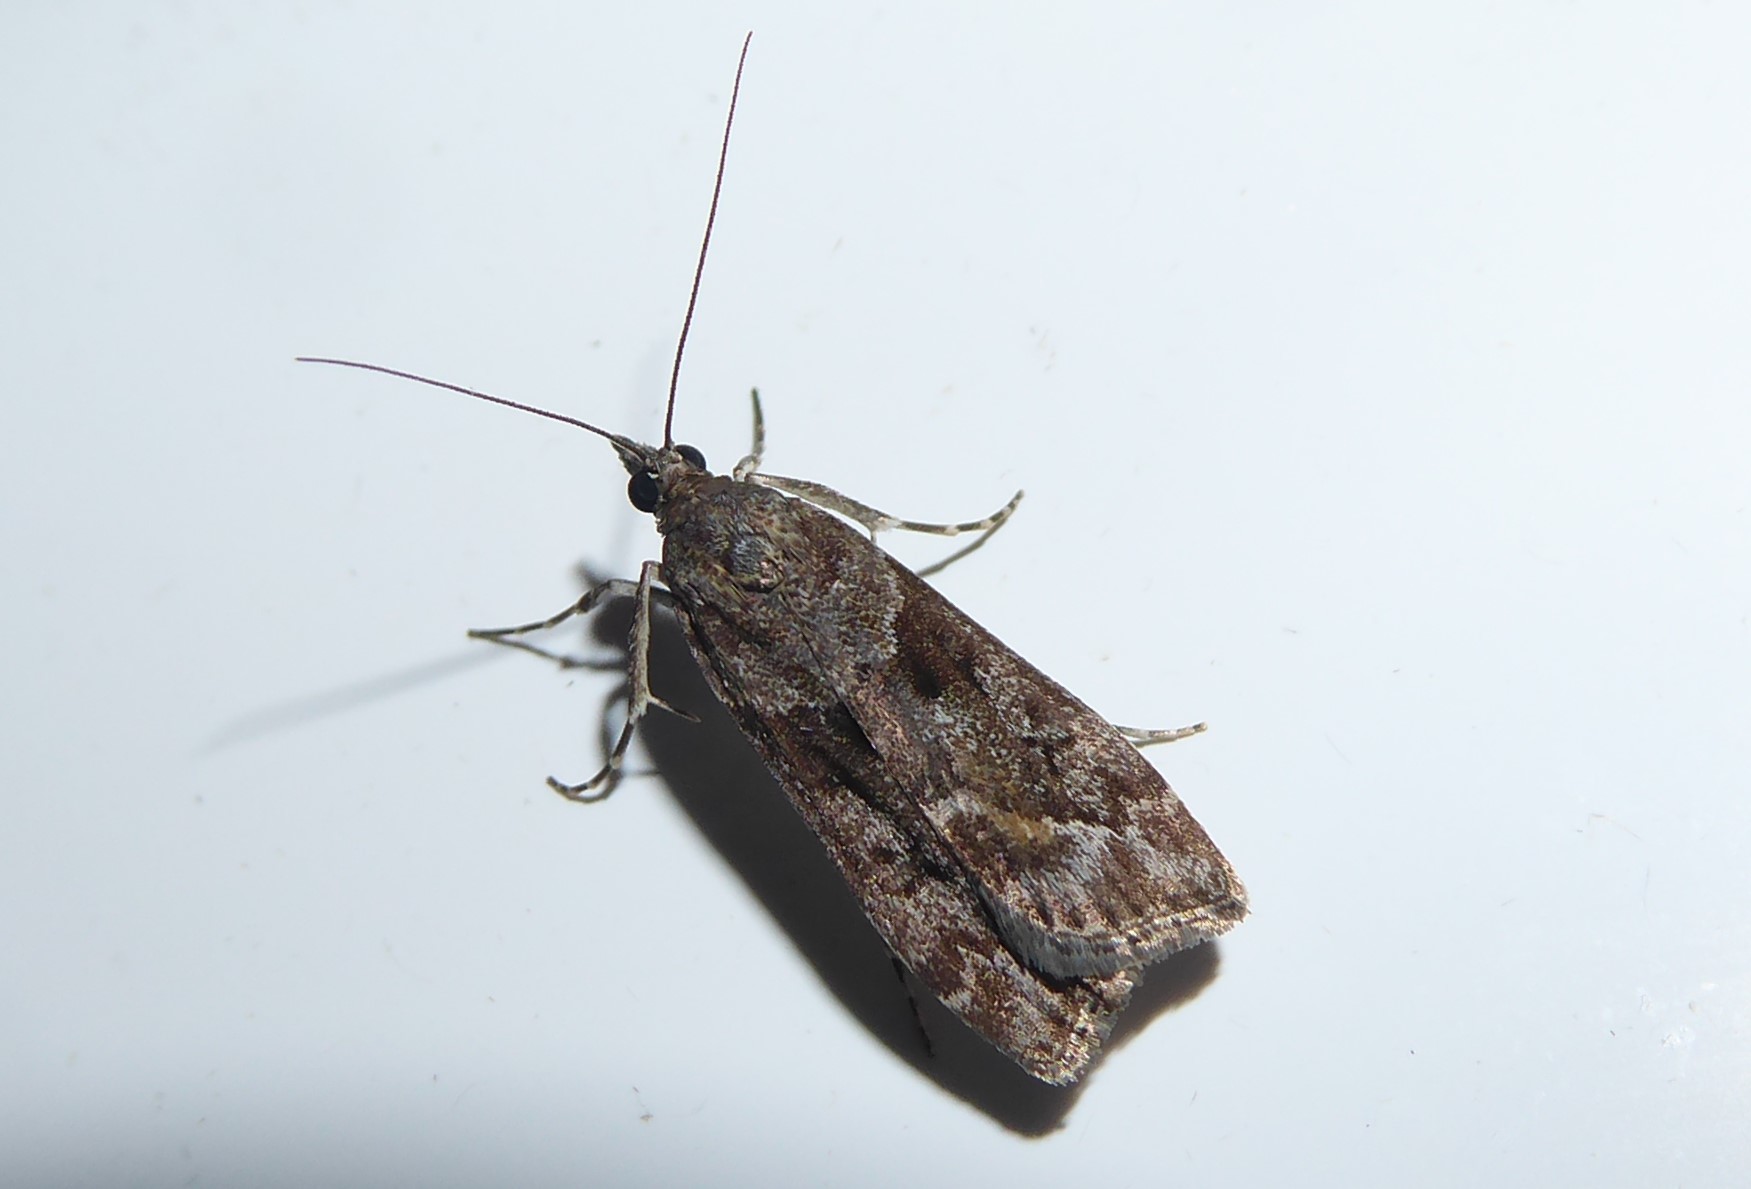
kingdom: Animalia
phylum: Arthropoda
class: Insecta
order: Lepidoptera
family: Crambidae
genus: Eudonia
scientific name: Eudonia submarginalis
